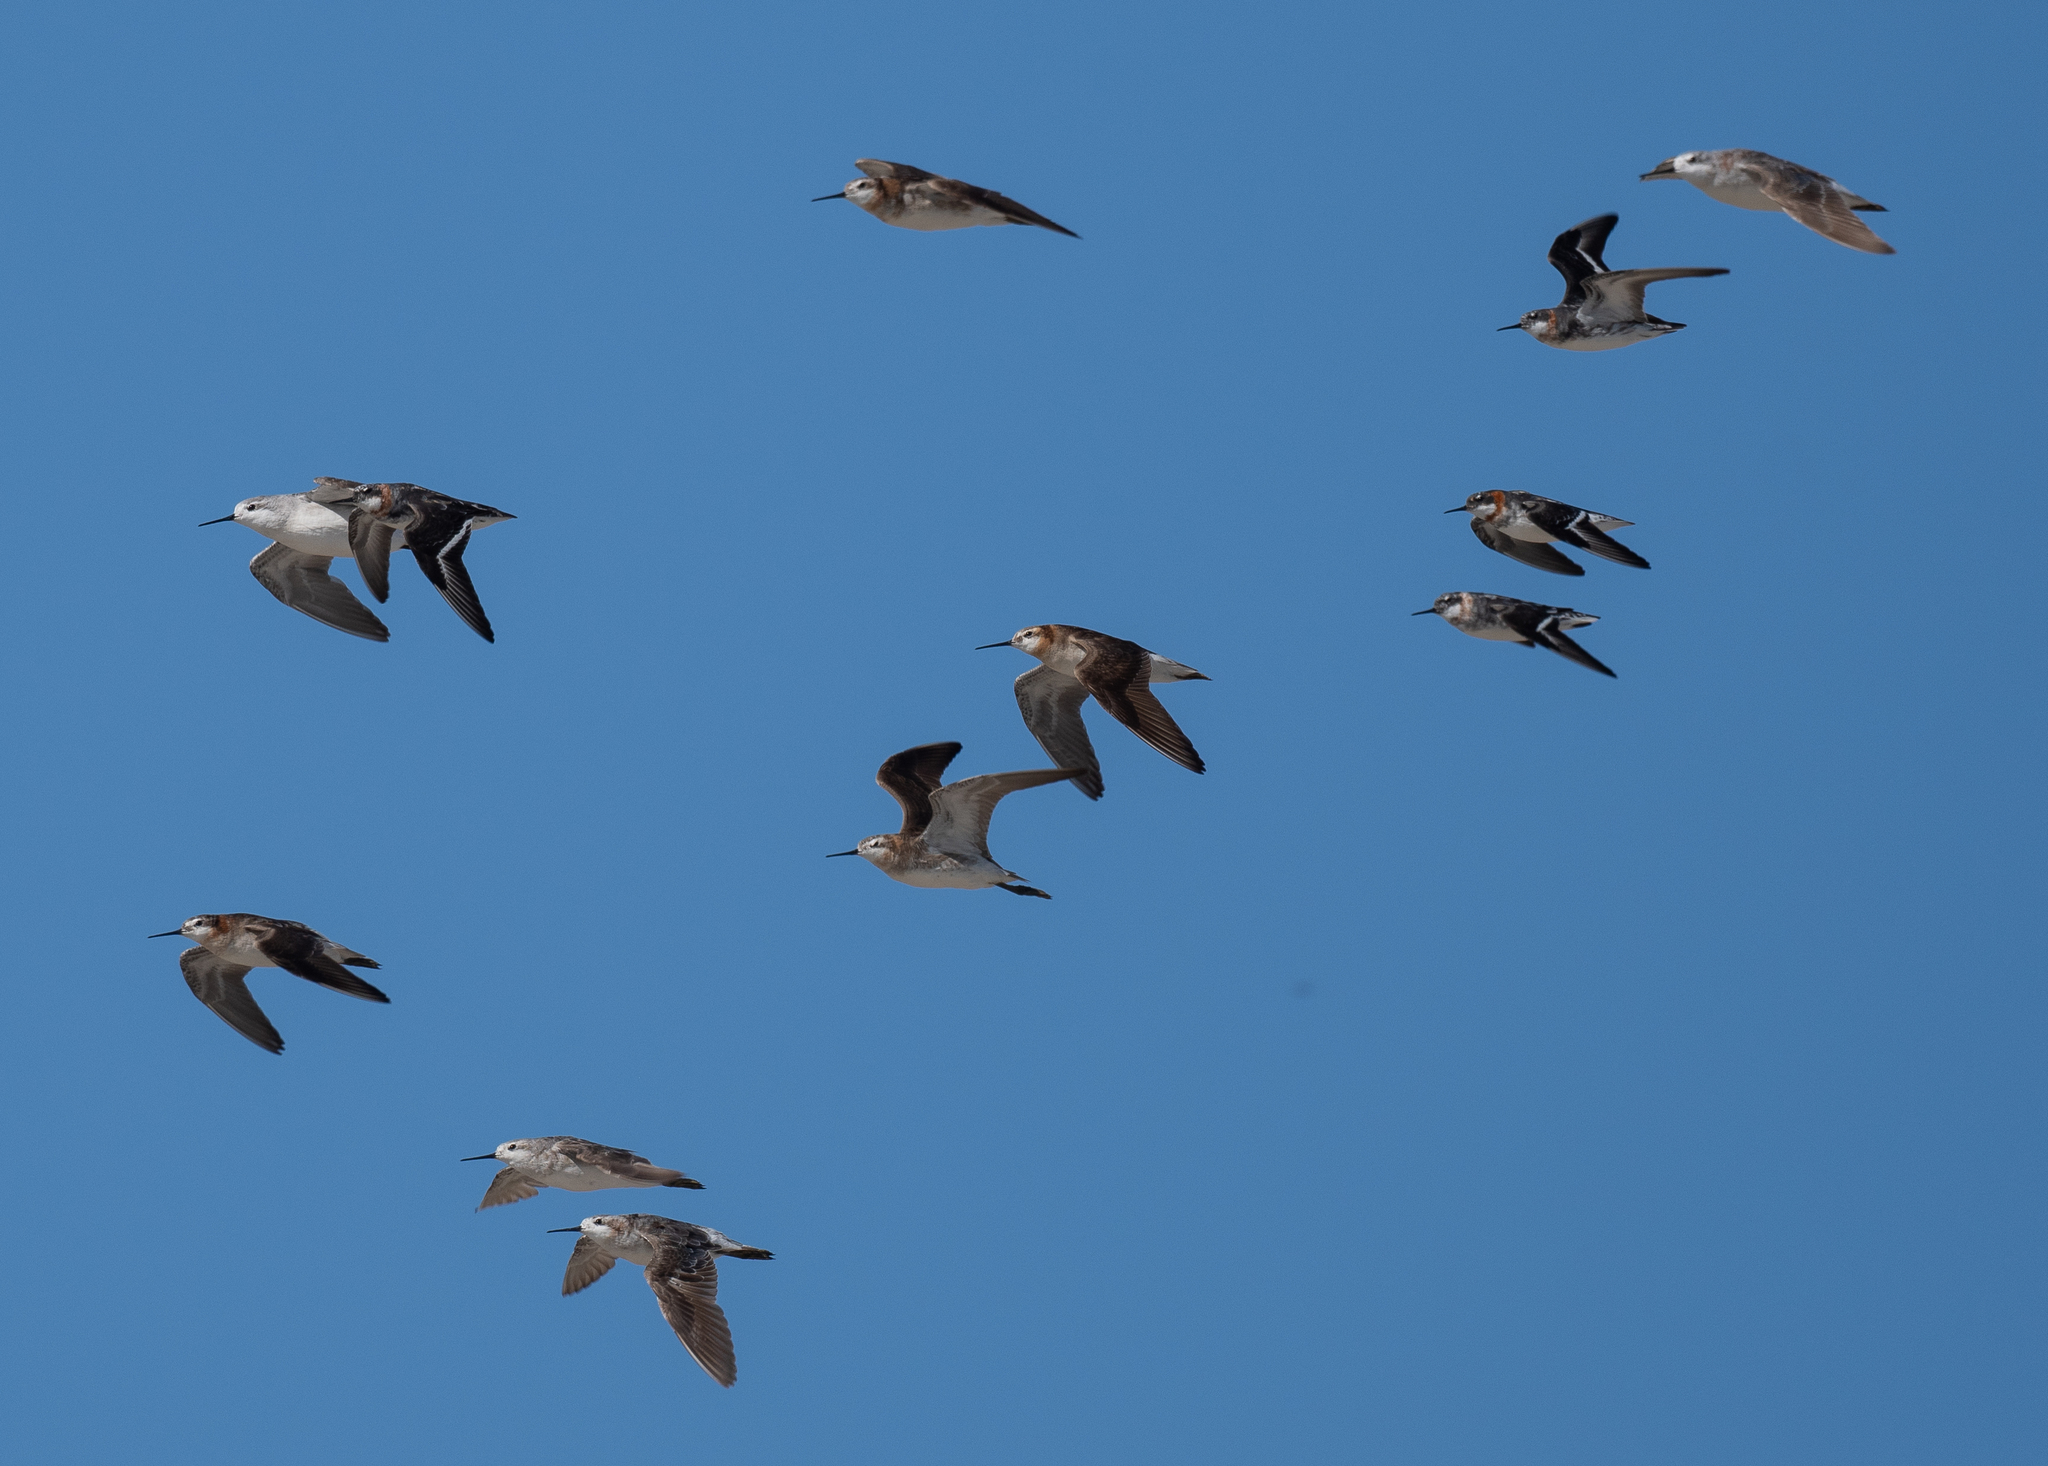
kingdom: Animalia
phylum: Chordata
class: Aves
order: Charadriiformes
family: Scolopacidae
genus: Phalaropus
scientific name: Phalaropus tricolor
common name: Wilson's phalarope
